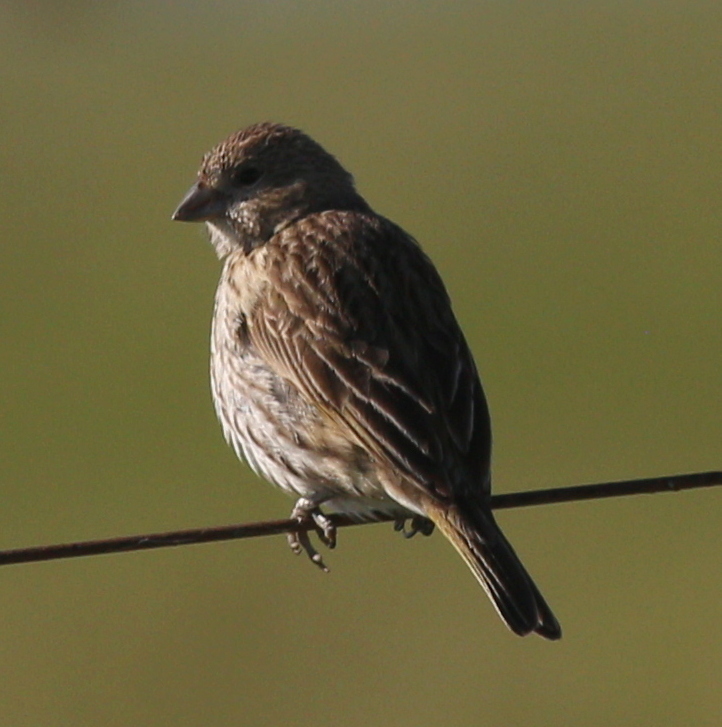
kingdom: Animalia
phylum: Chordata
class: Aves
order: Passeriformes
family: Thraupidae
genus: Sicalis
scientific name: Sicalis flaveola
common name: Saffron finch
